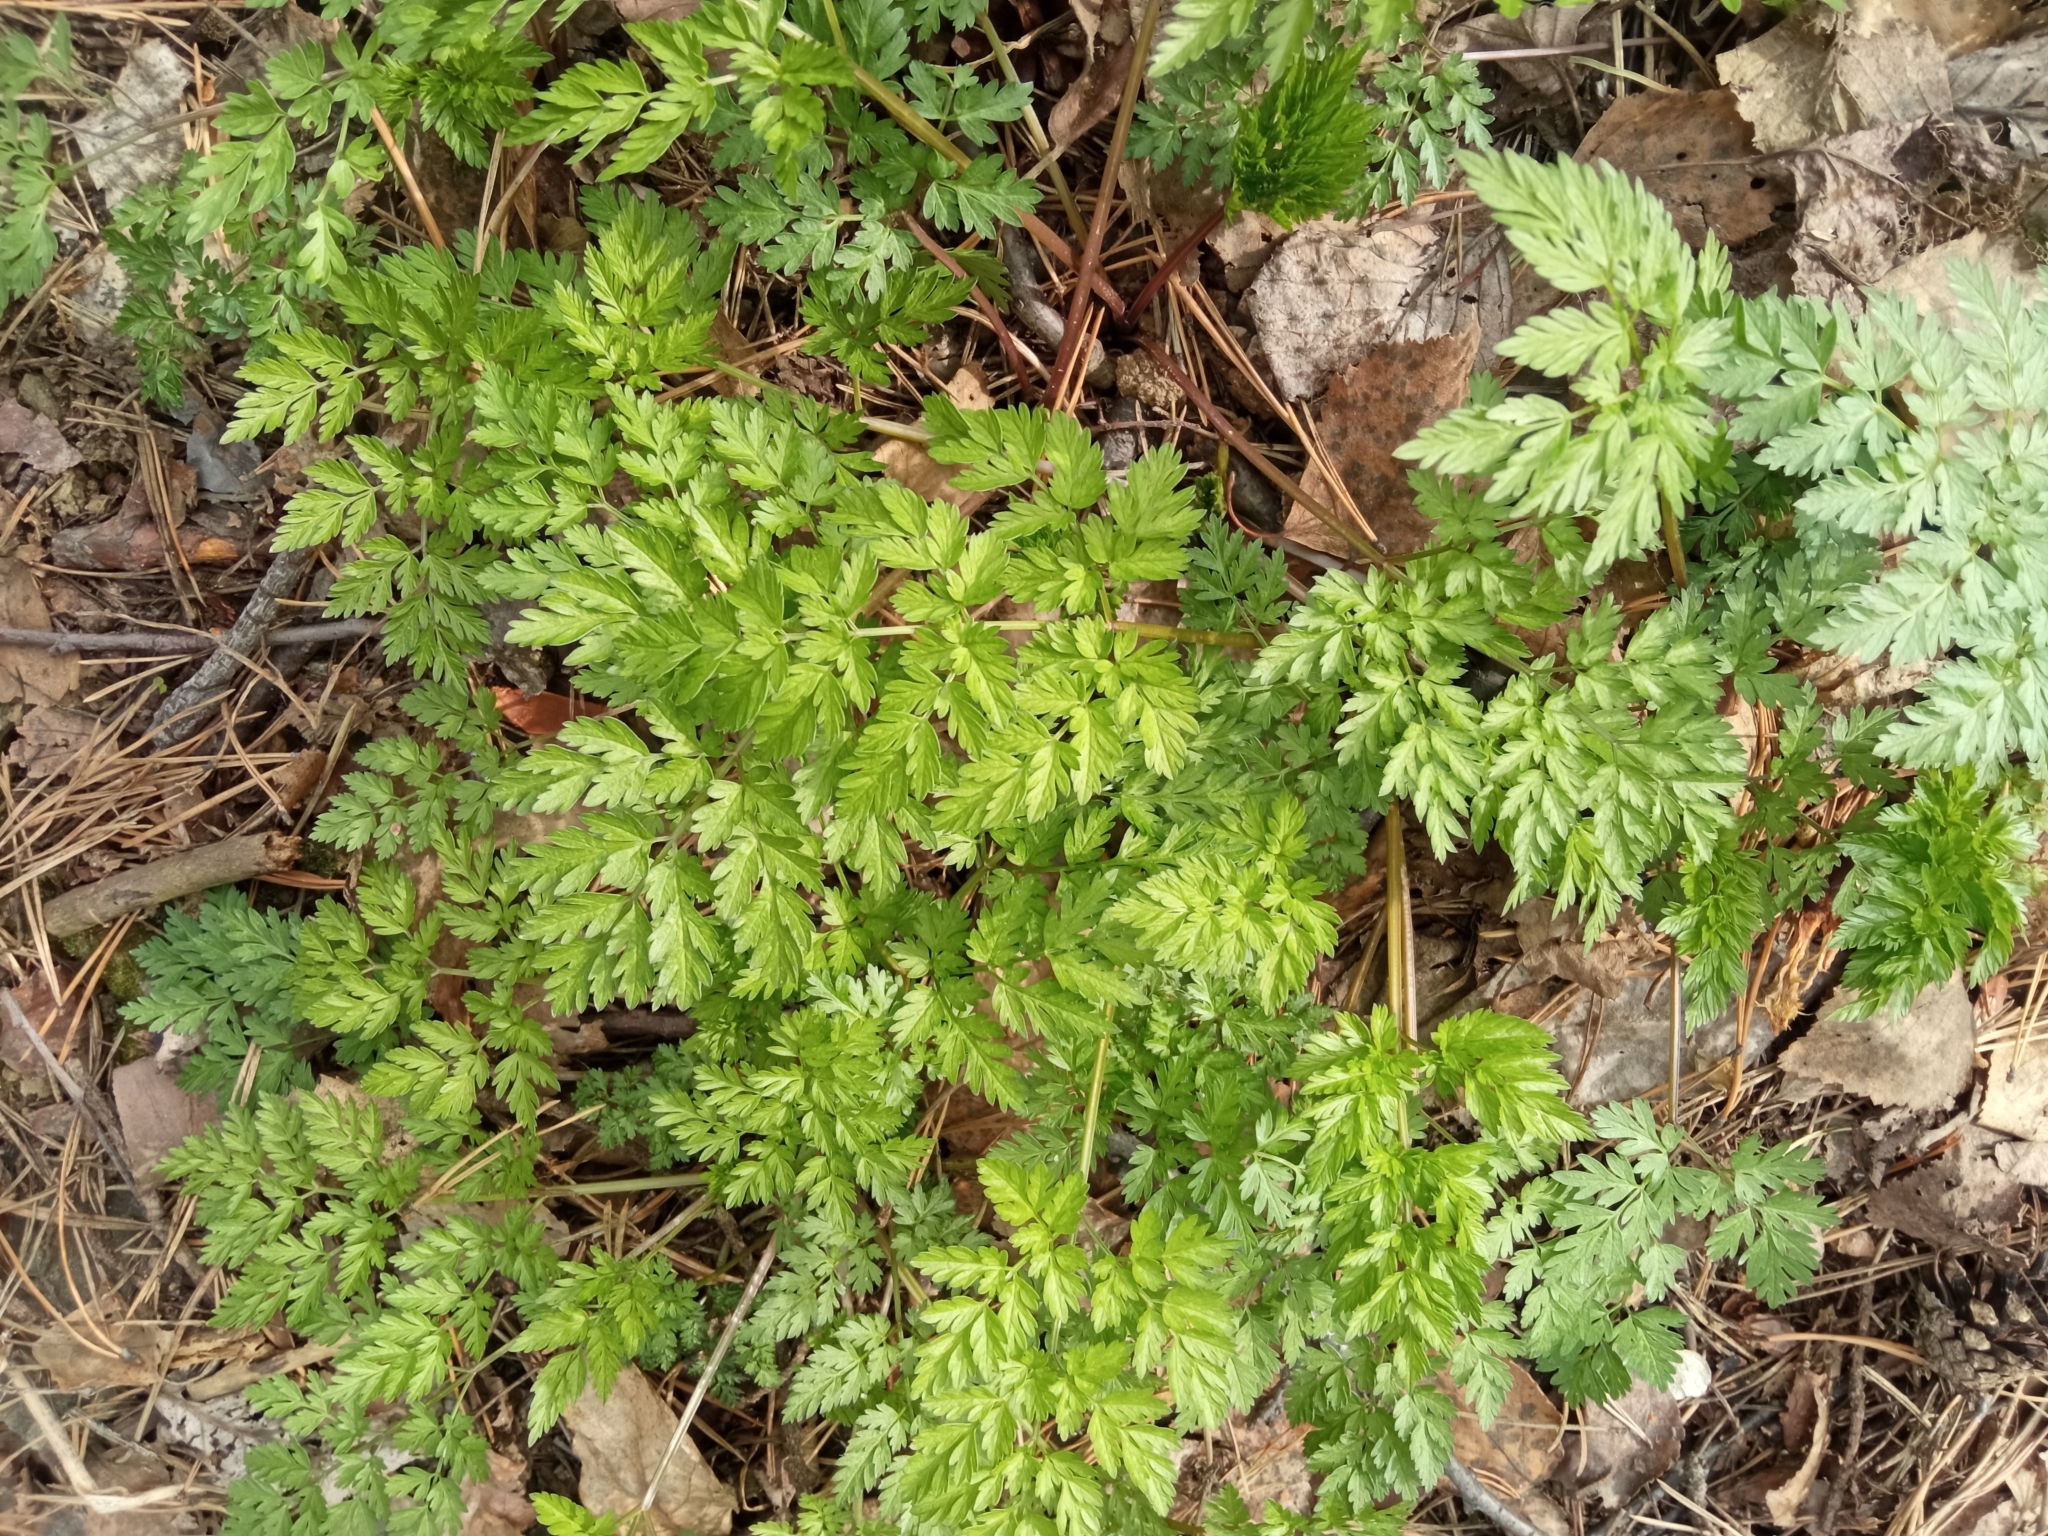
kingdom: Plantae
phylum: Tracheophyta
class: Magnoliopsida
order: Apiales
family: Apiaceae
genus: Anthriscus
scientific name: Anthriscus sylvestris
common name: Cow parsley
